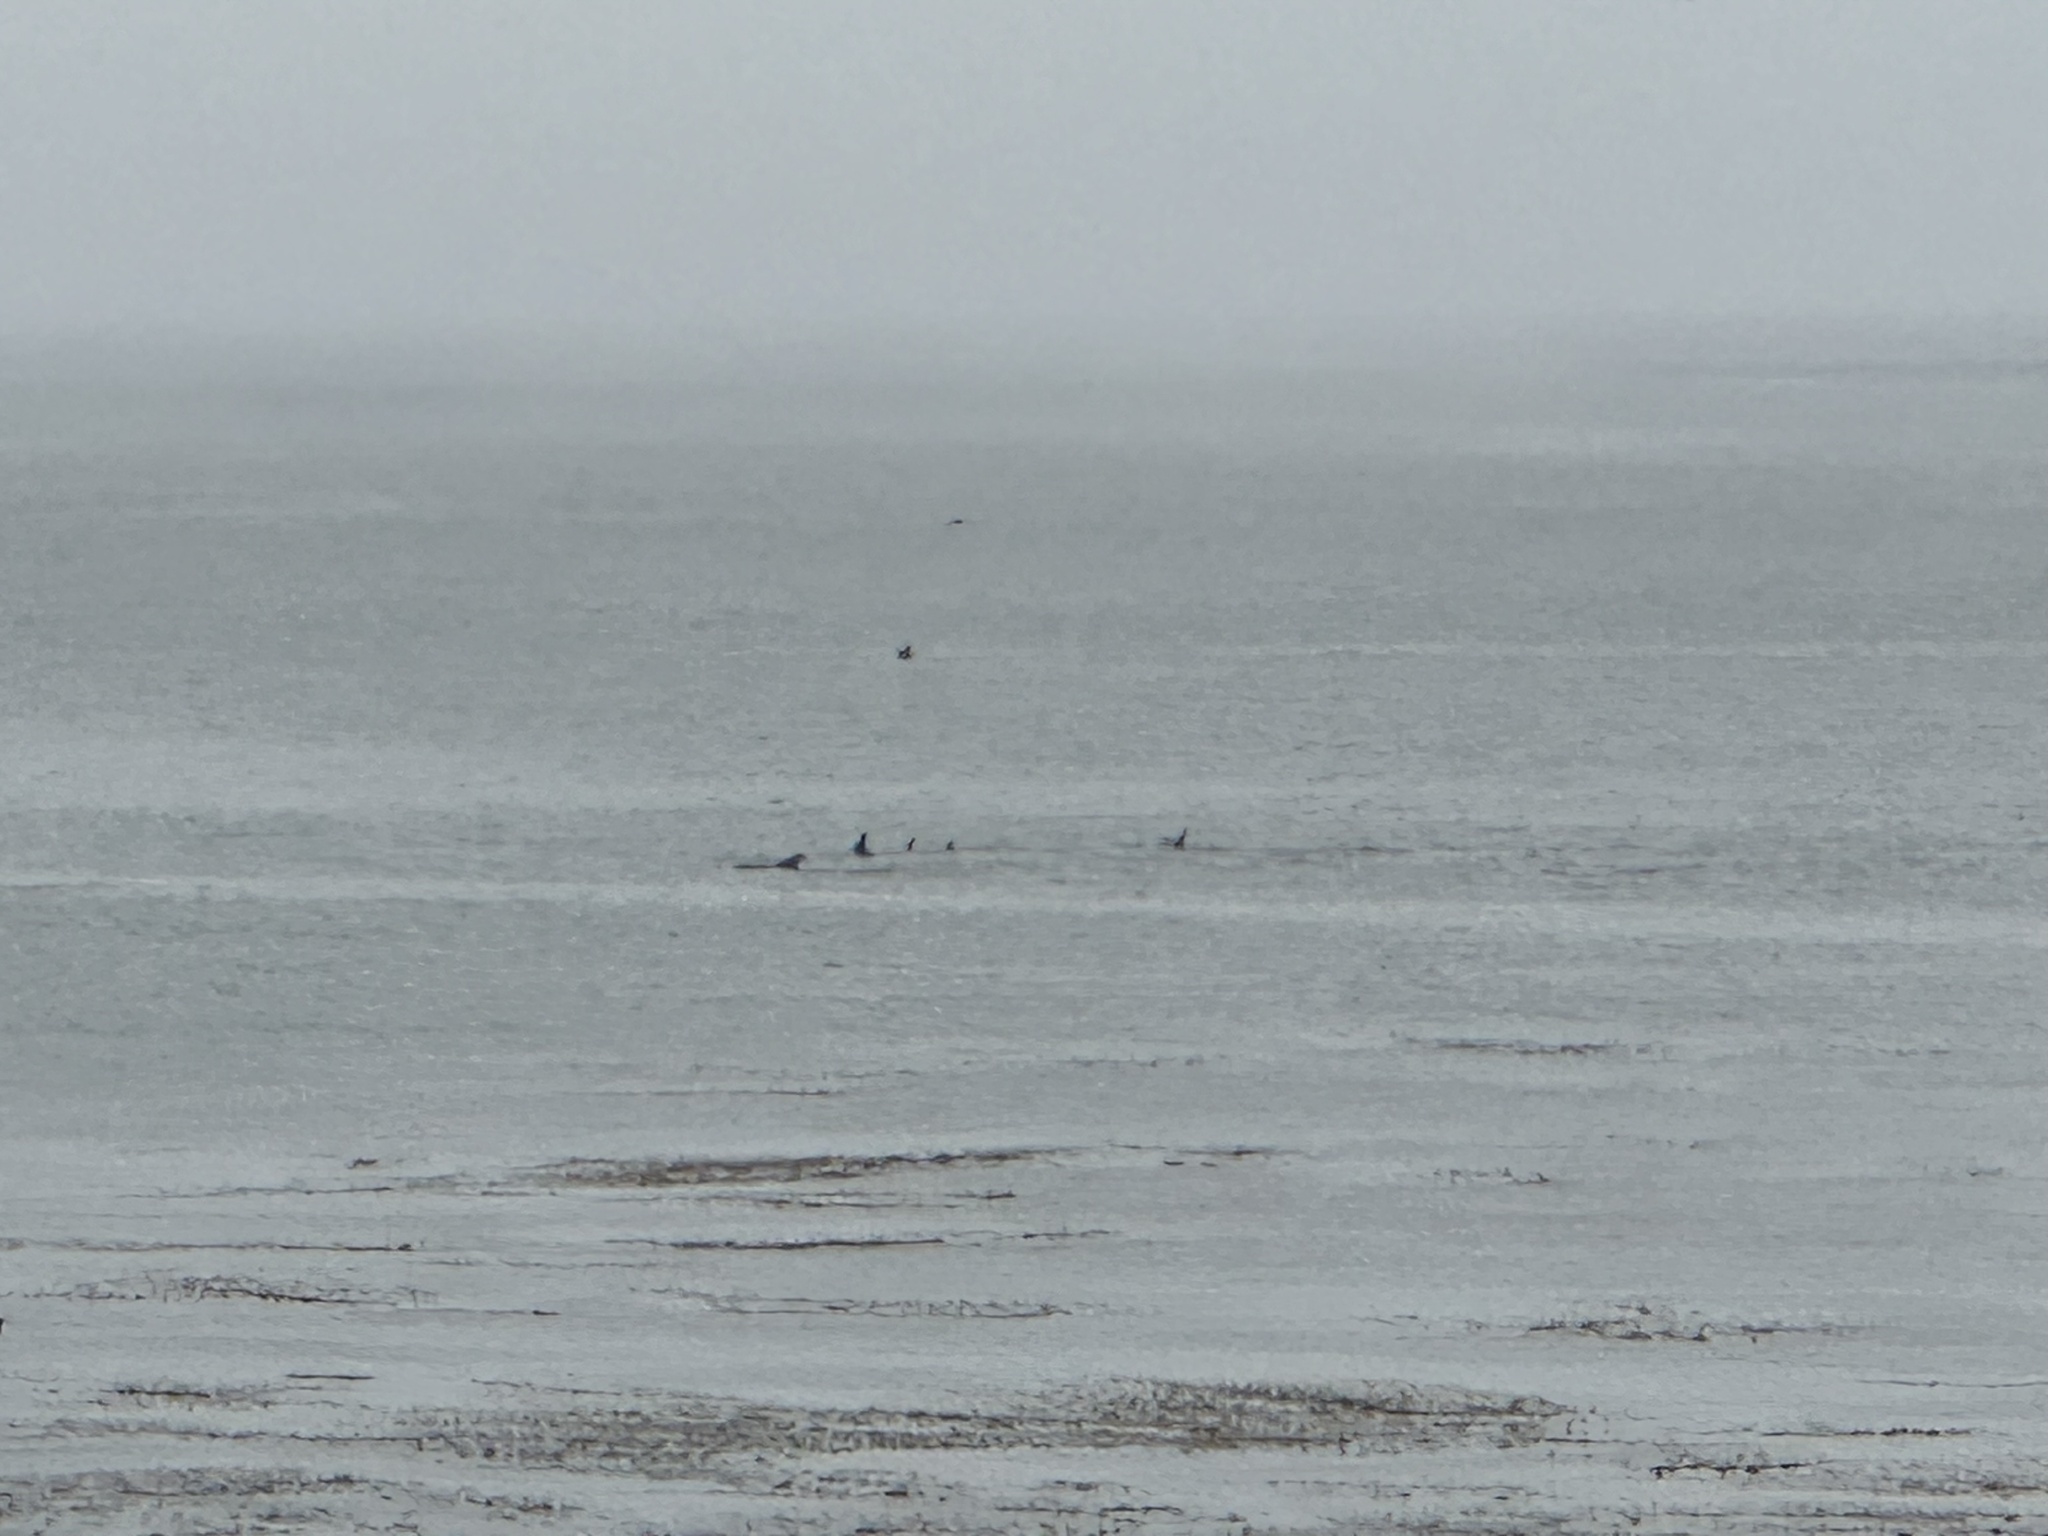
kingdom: Animalia
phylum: Chordata
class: Mammalia
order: Cetacea
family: Delphinidae
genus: Grampus
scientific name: Grampus griseus
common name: Risso's dolphin
